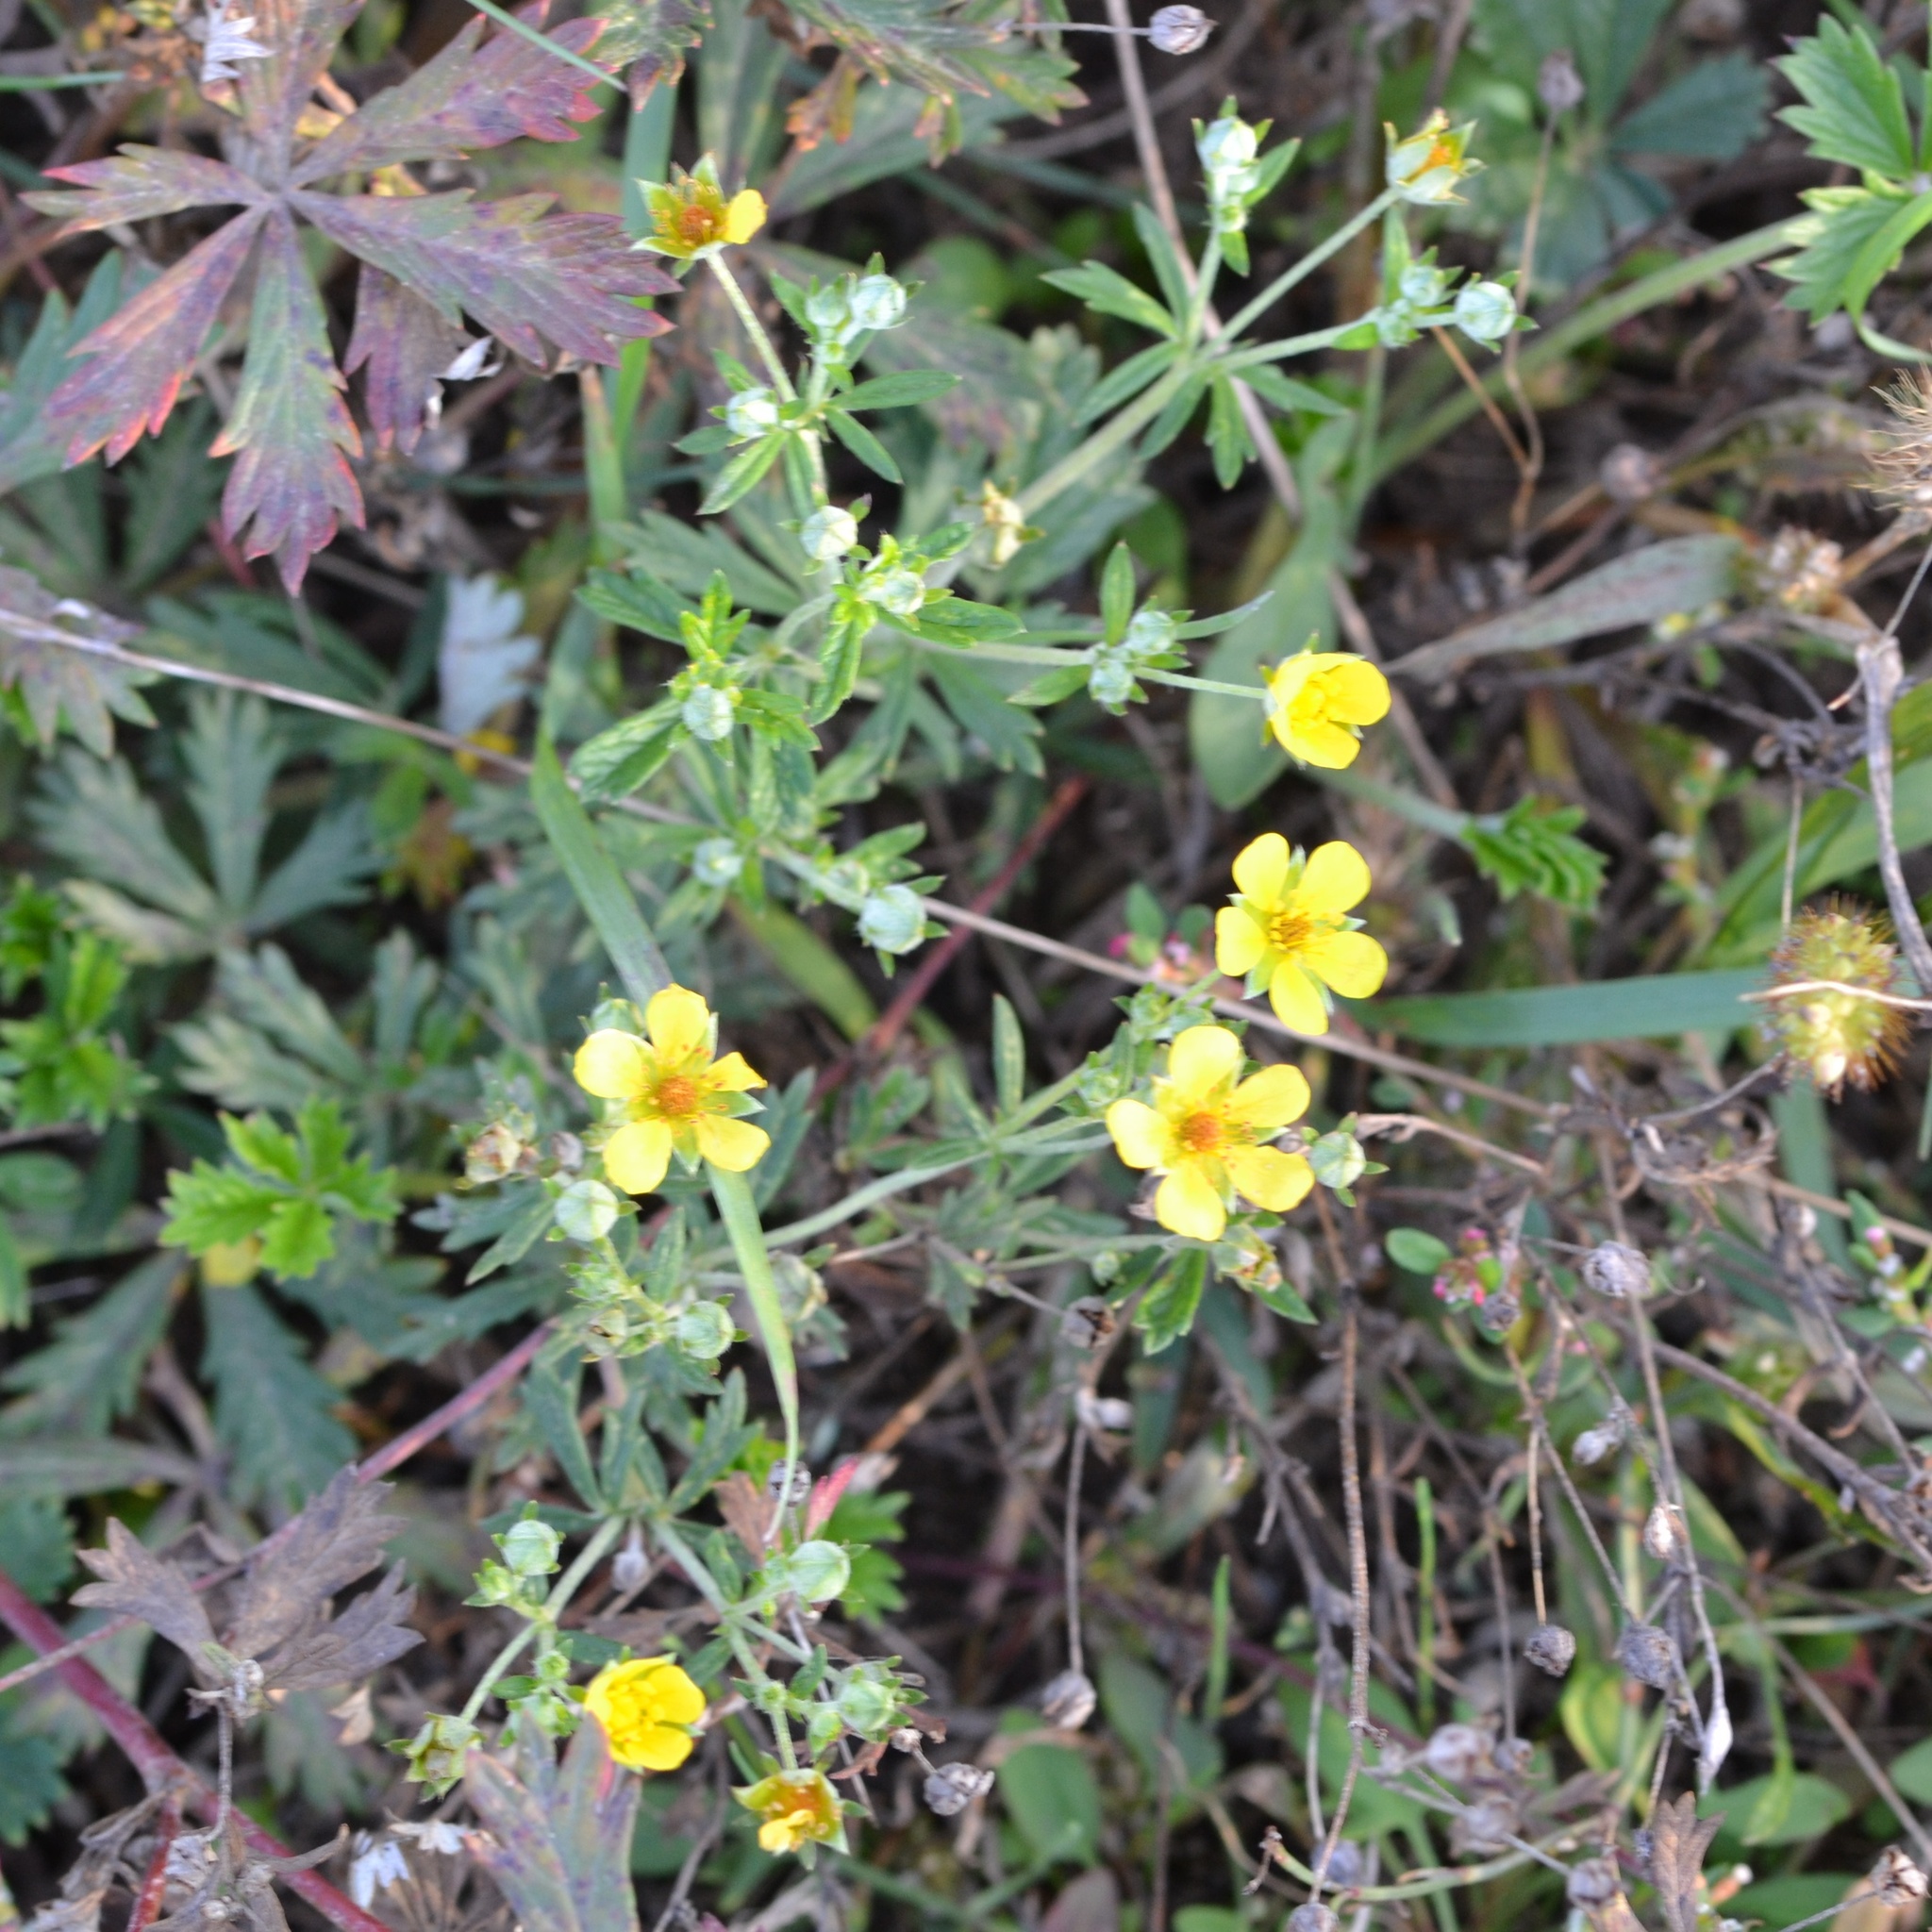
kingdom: Plantae
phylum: Tracheophyta
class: Magnoliopsida
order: Rosales
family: Rosaceae
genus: Potentilla
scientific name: Potentilla argentea
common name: Hoary cinquefoil
